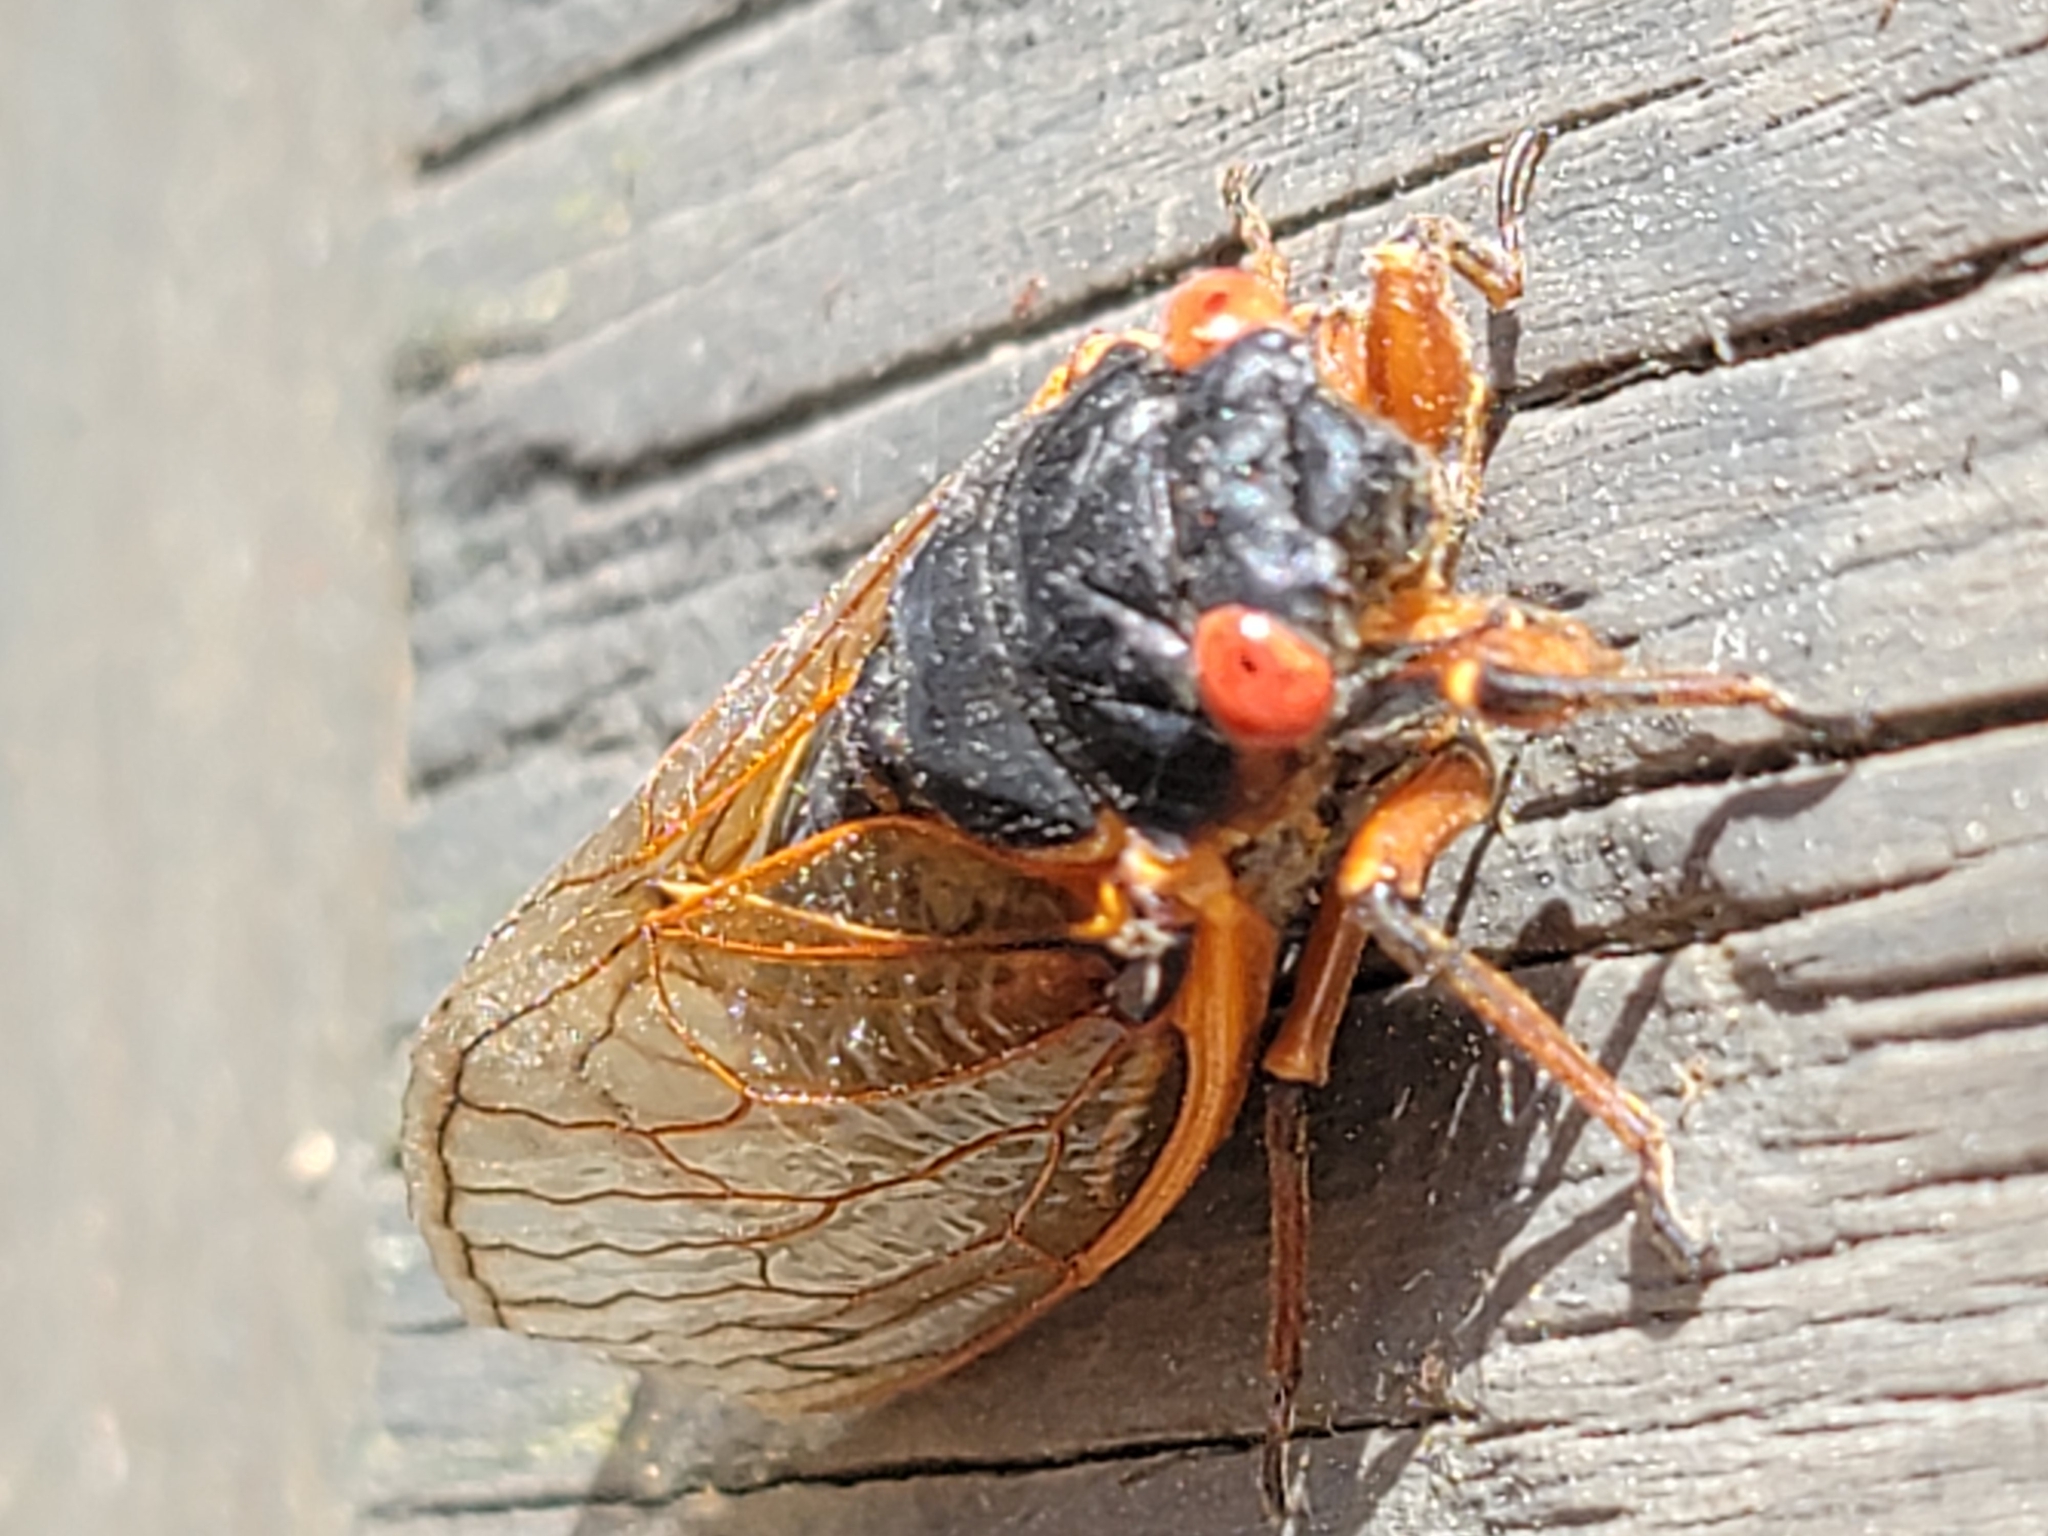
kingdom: Animalia
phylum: Arthropoda
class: Insecta
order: Hemiptera
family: Cicadidae
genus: Magicicada
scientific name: Magicicada septendecim
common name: Periodical cicada
